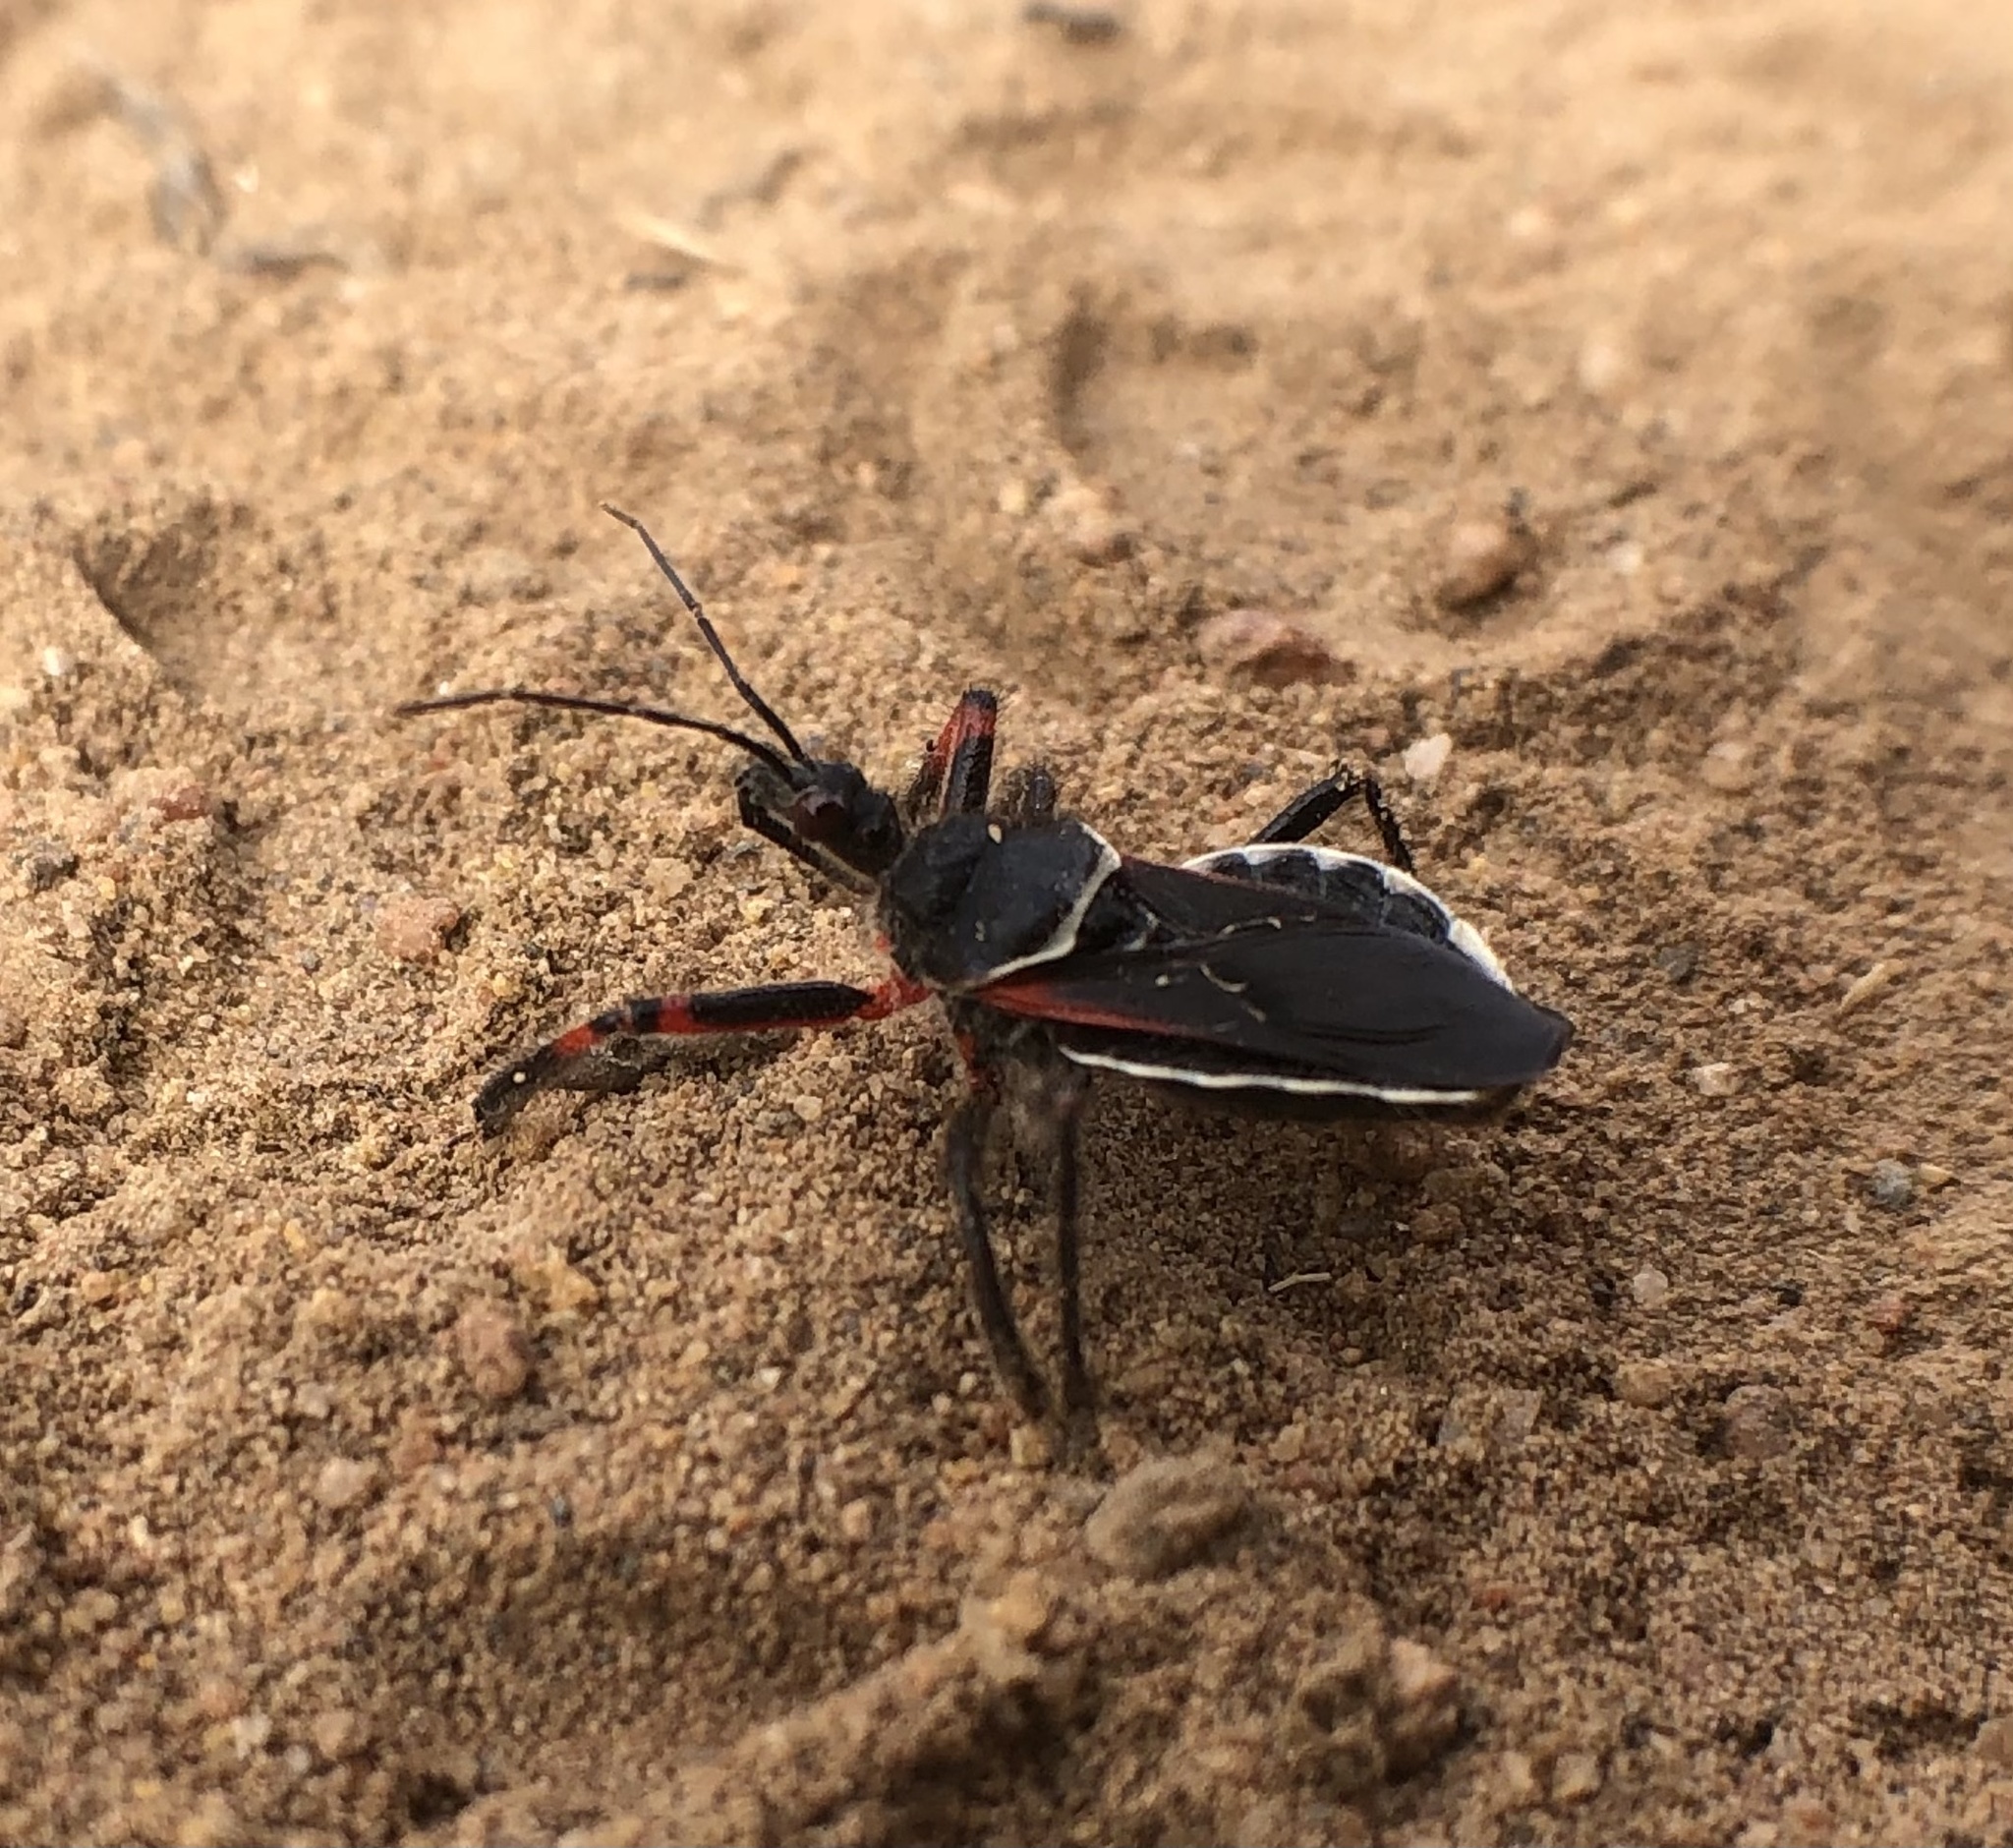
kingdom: Animalia
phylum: Arthropoda
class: Insecta
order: Hemiptera
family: Reduviidae
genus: Apiomerus
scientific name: Apiomerus californicus
